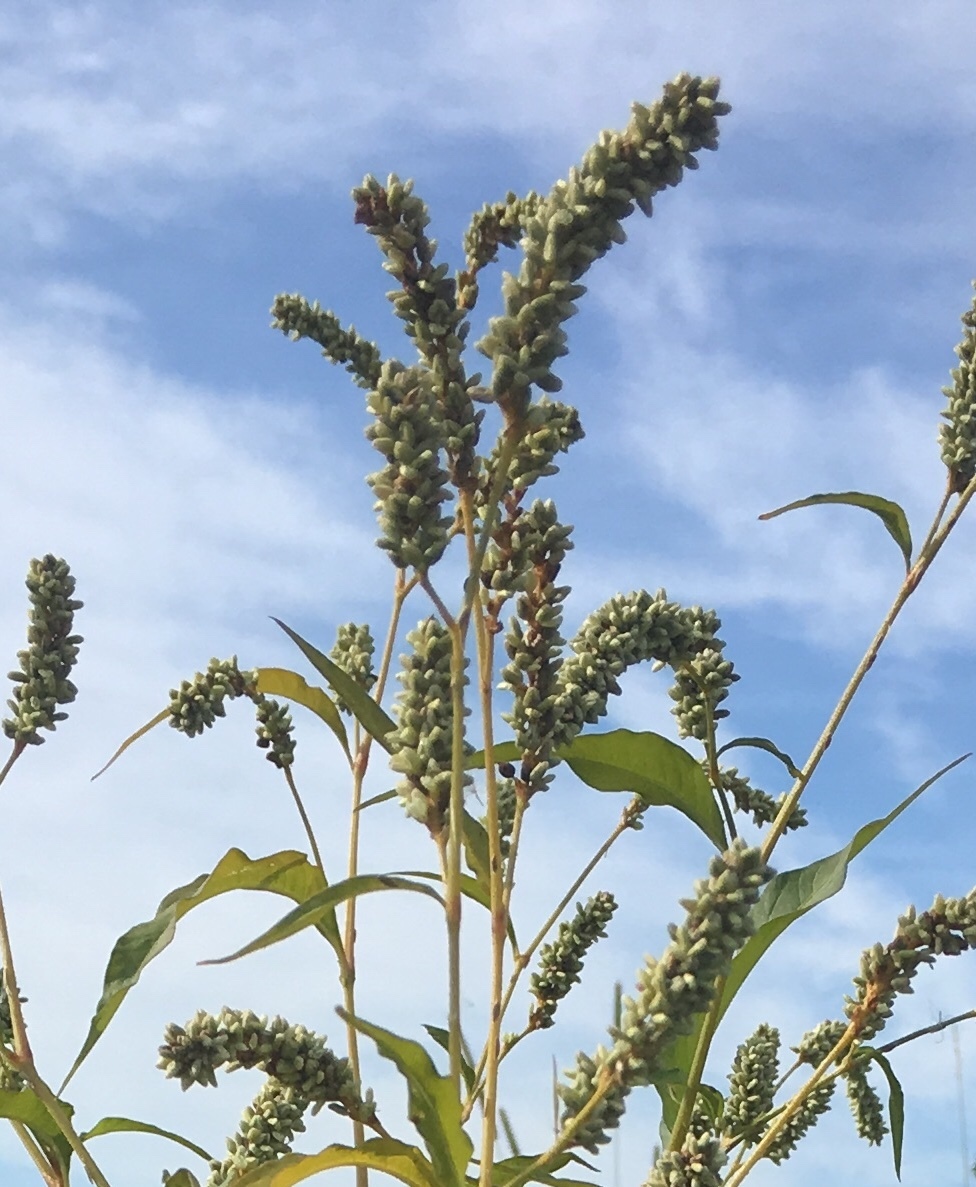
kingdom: Plantae
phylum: Tracheophyta
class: Magnoliopsida
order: Caryophyllales
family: Polygonaceae
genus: Persicaria
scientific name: Persicaria lapathifolia
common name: Curlytop knotweed
